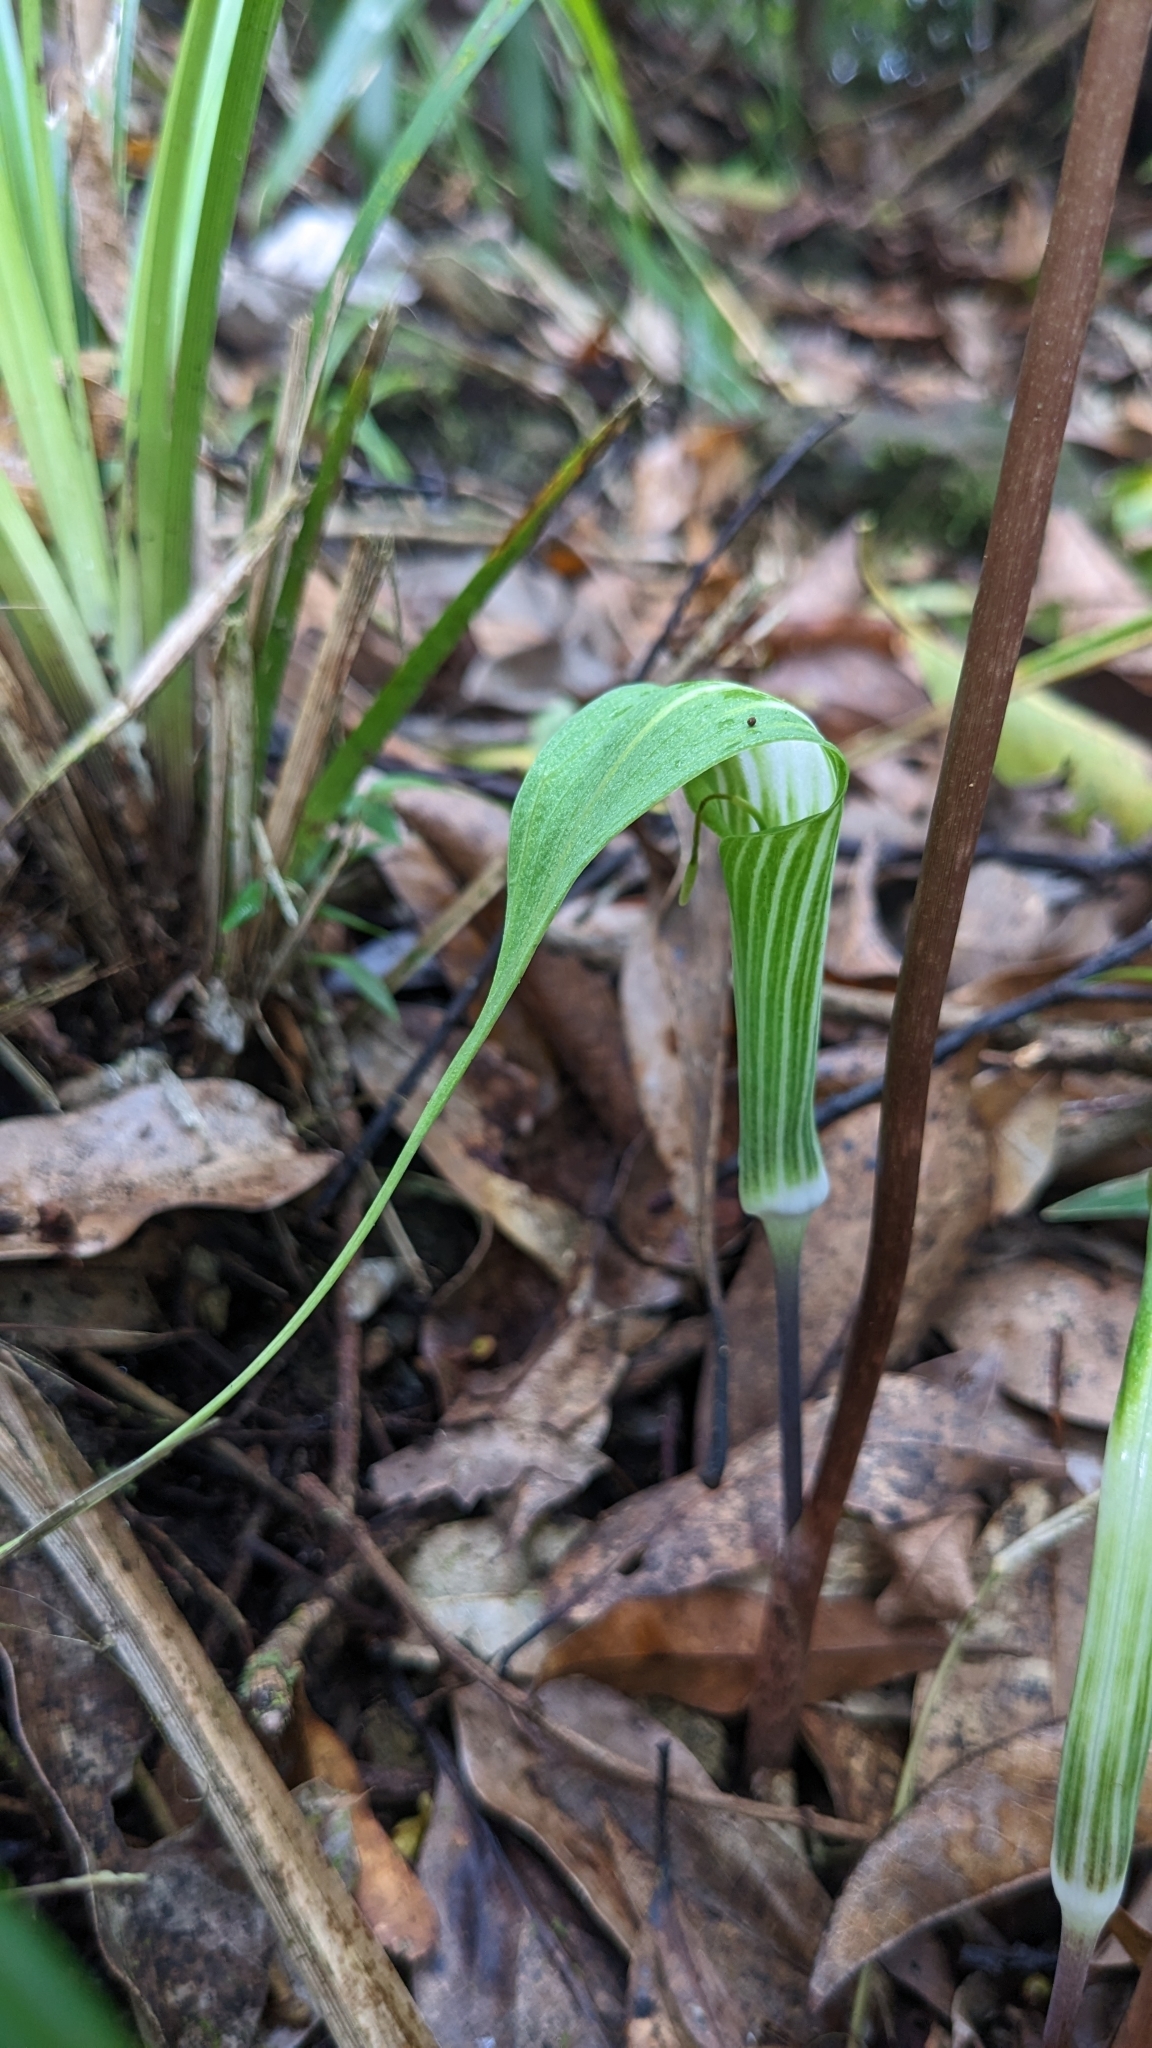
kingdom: Plantae
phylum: Tracheophyta
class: Liliopsida
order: Alismatales
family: Araceae
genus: Arisaema
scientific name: Arisaema formosanum
